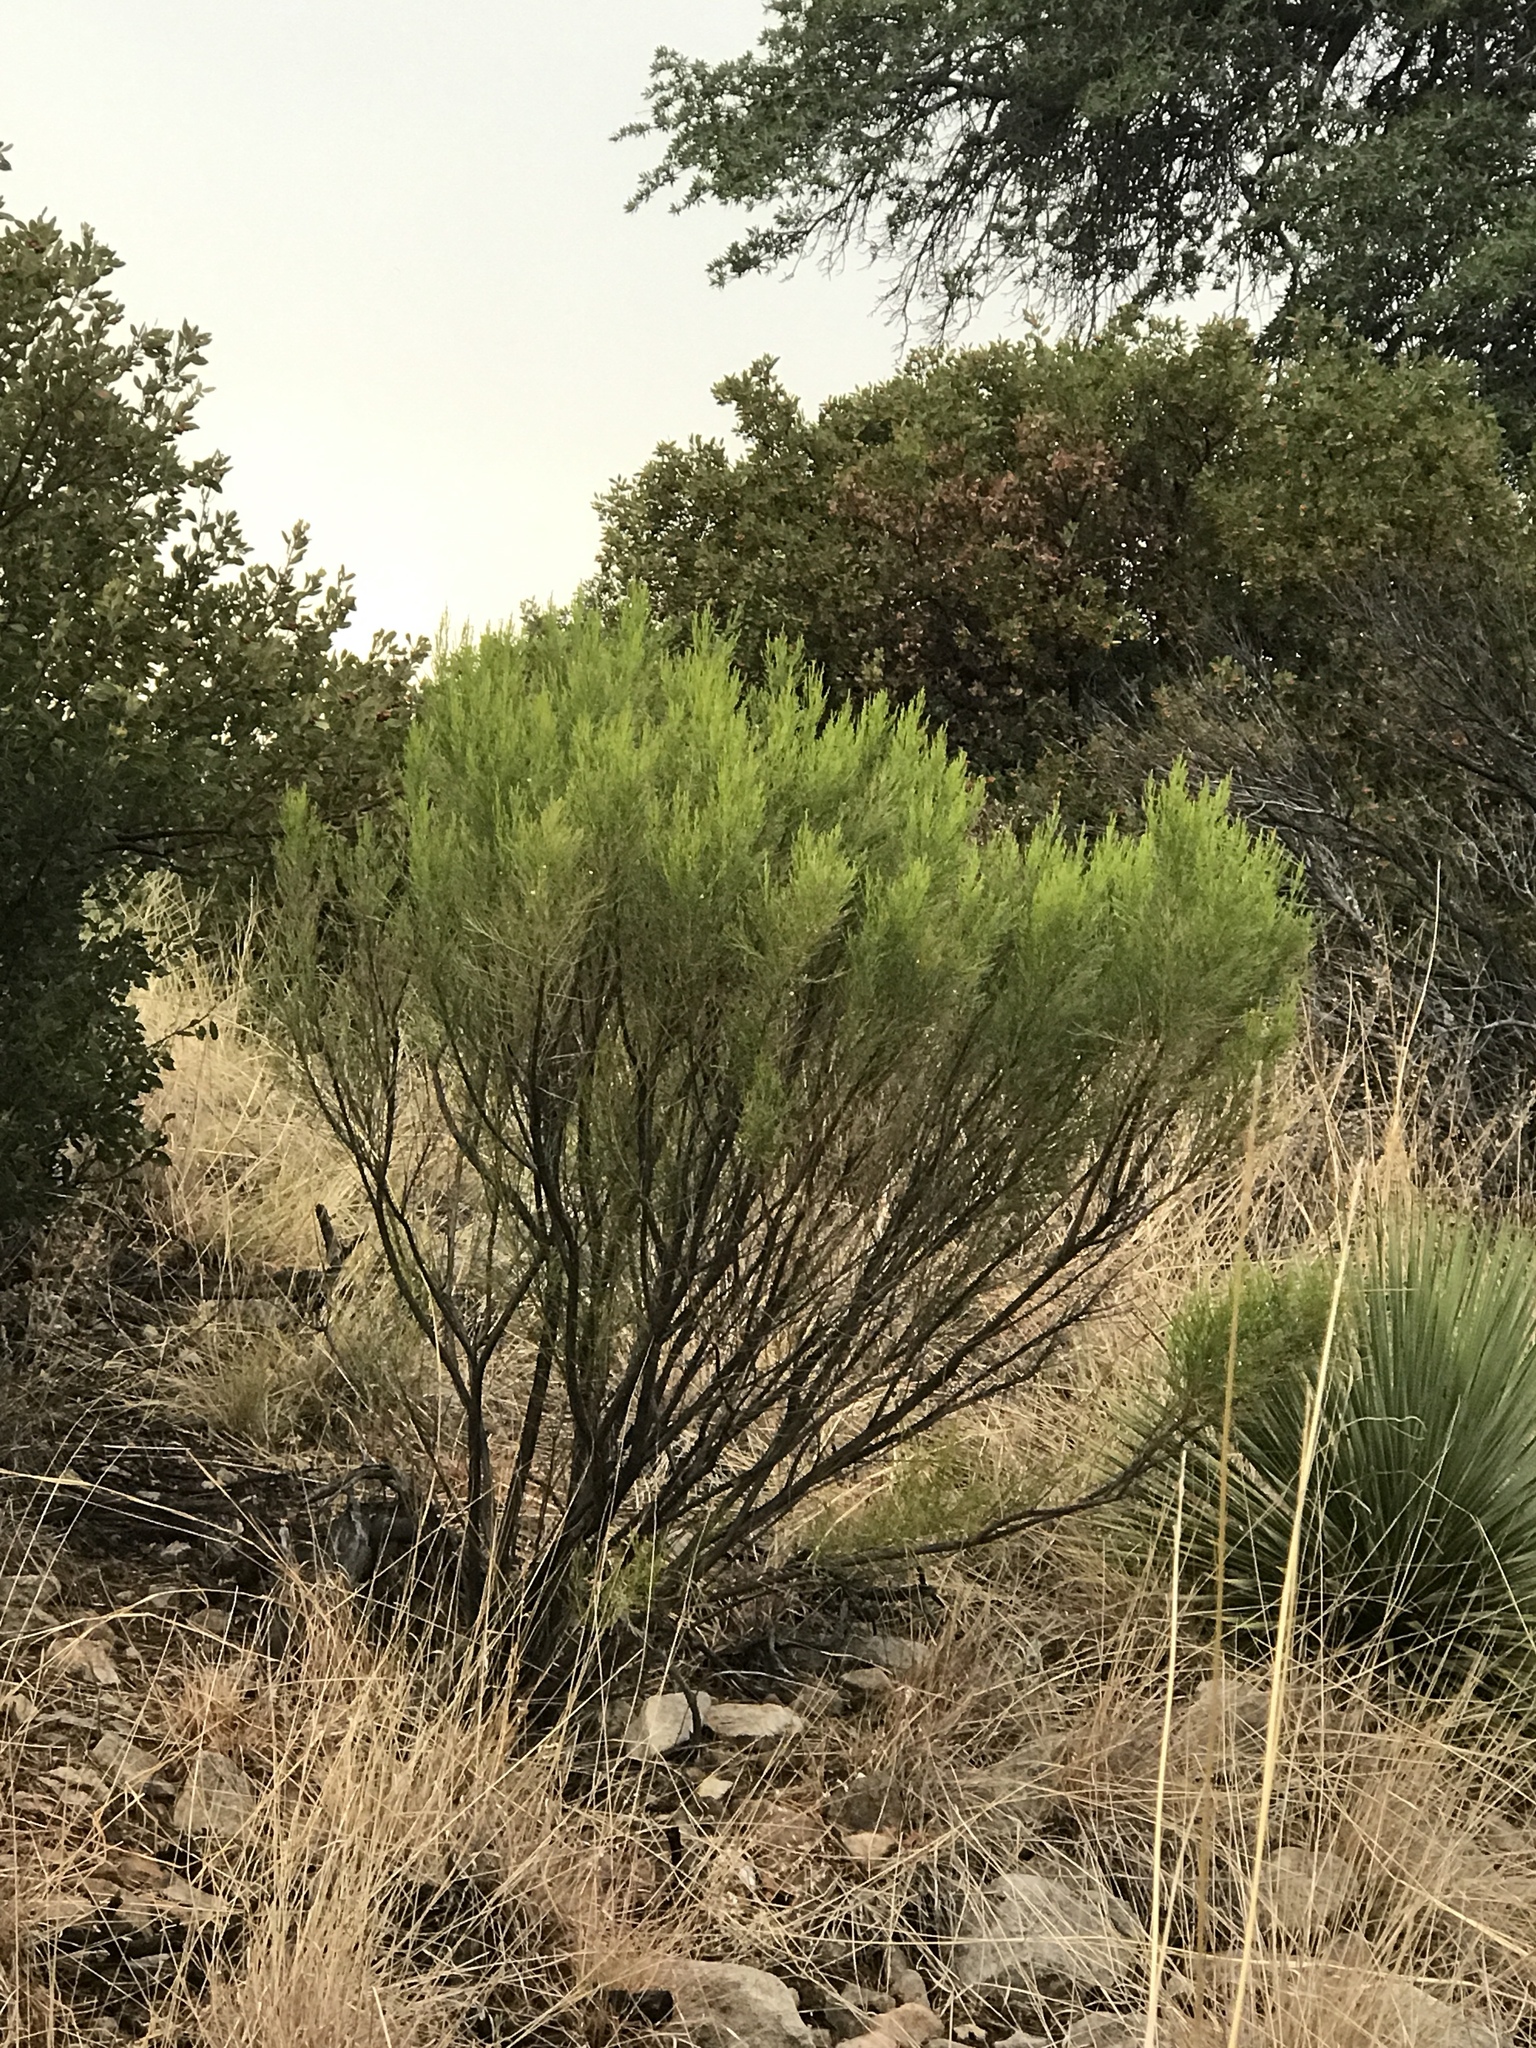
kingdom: Plantae
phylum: Tracheophyta
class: Magnoliopsida
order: Asterales
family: Asteraceae
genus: Baccharis
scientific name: Baccharis sarothroides
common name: Desert-broom
